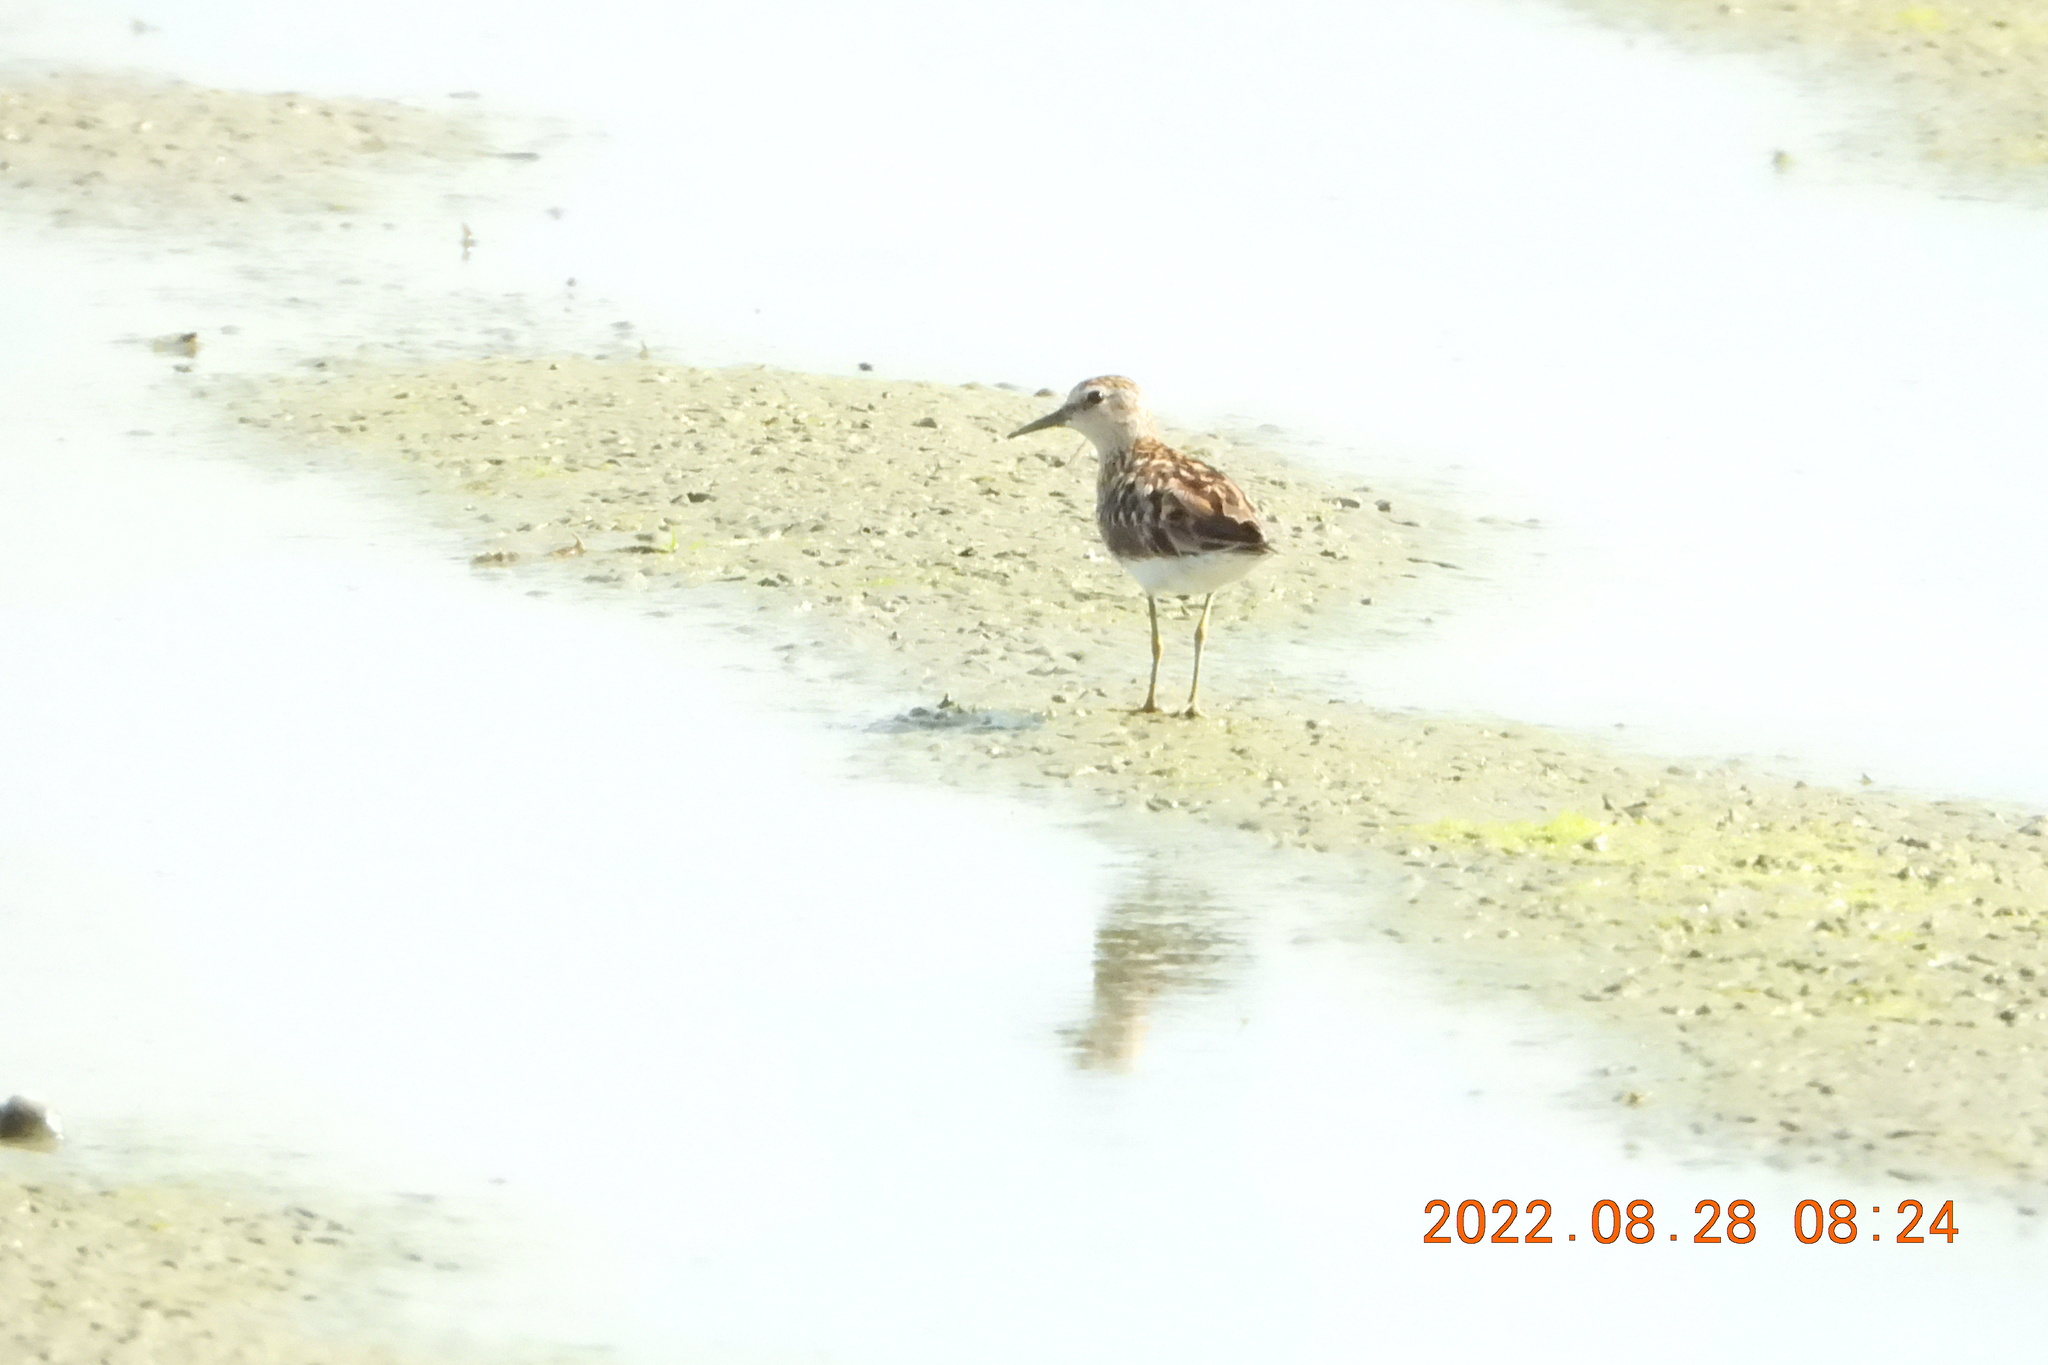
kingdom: Animalia
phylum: Chordata
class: Aves
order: Charadriiformes
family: Scolopacidae
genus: Calidris
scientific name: Calidris subminuta
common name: Long-toed stint
